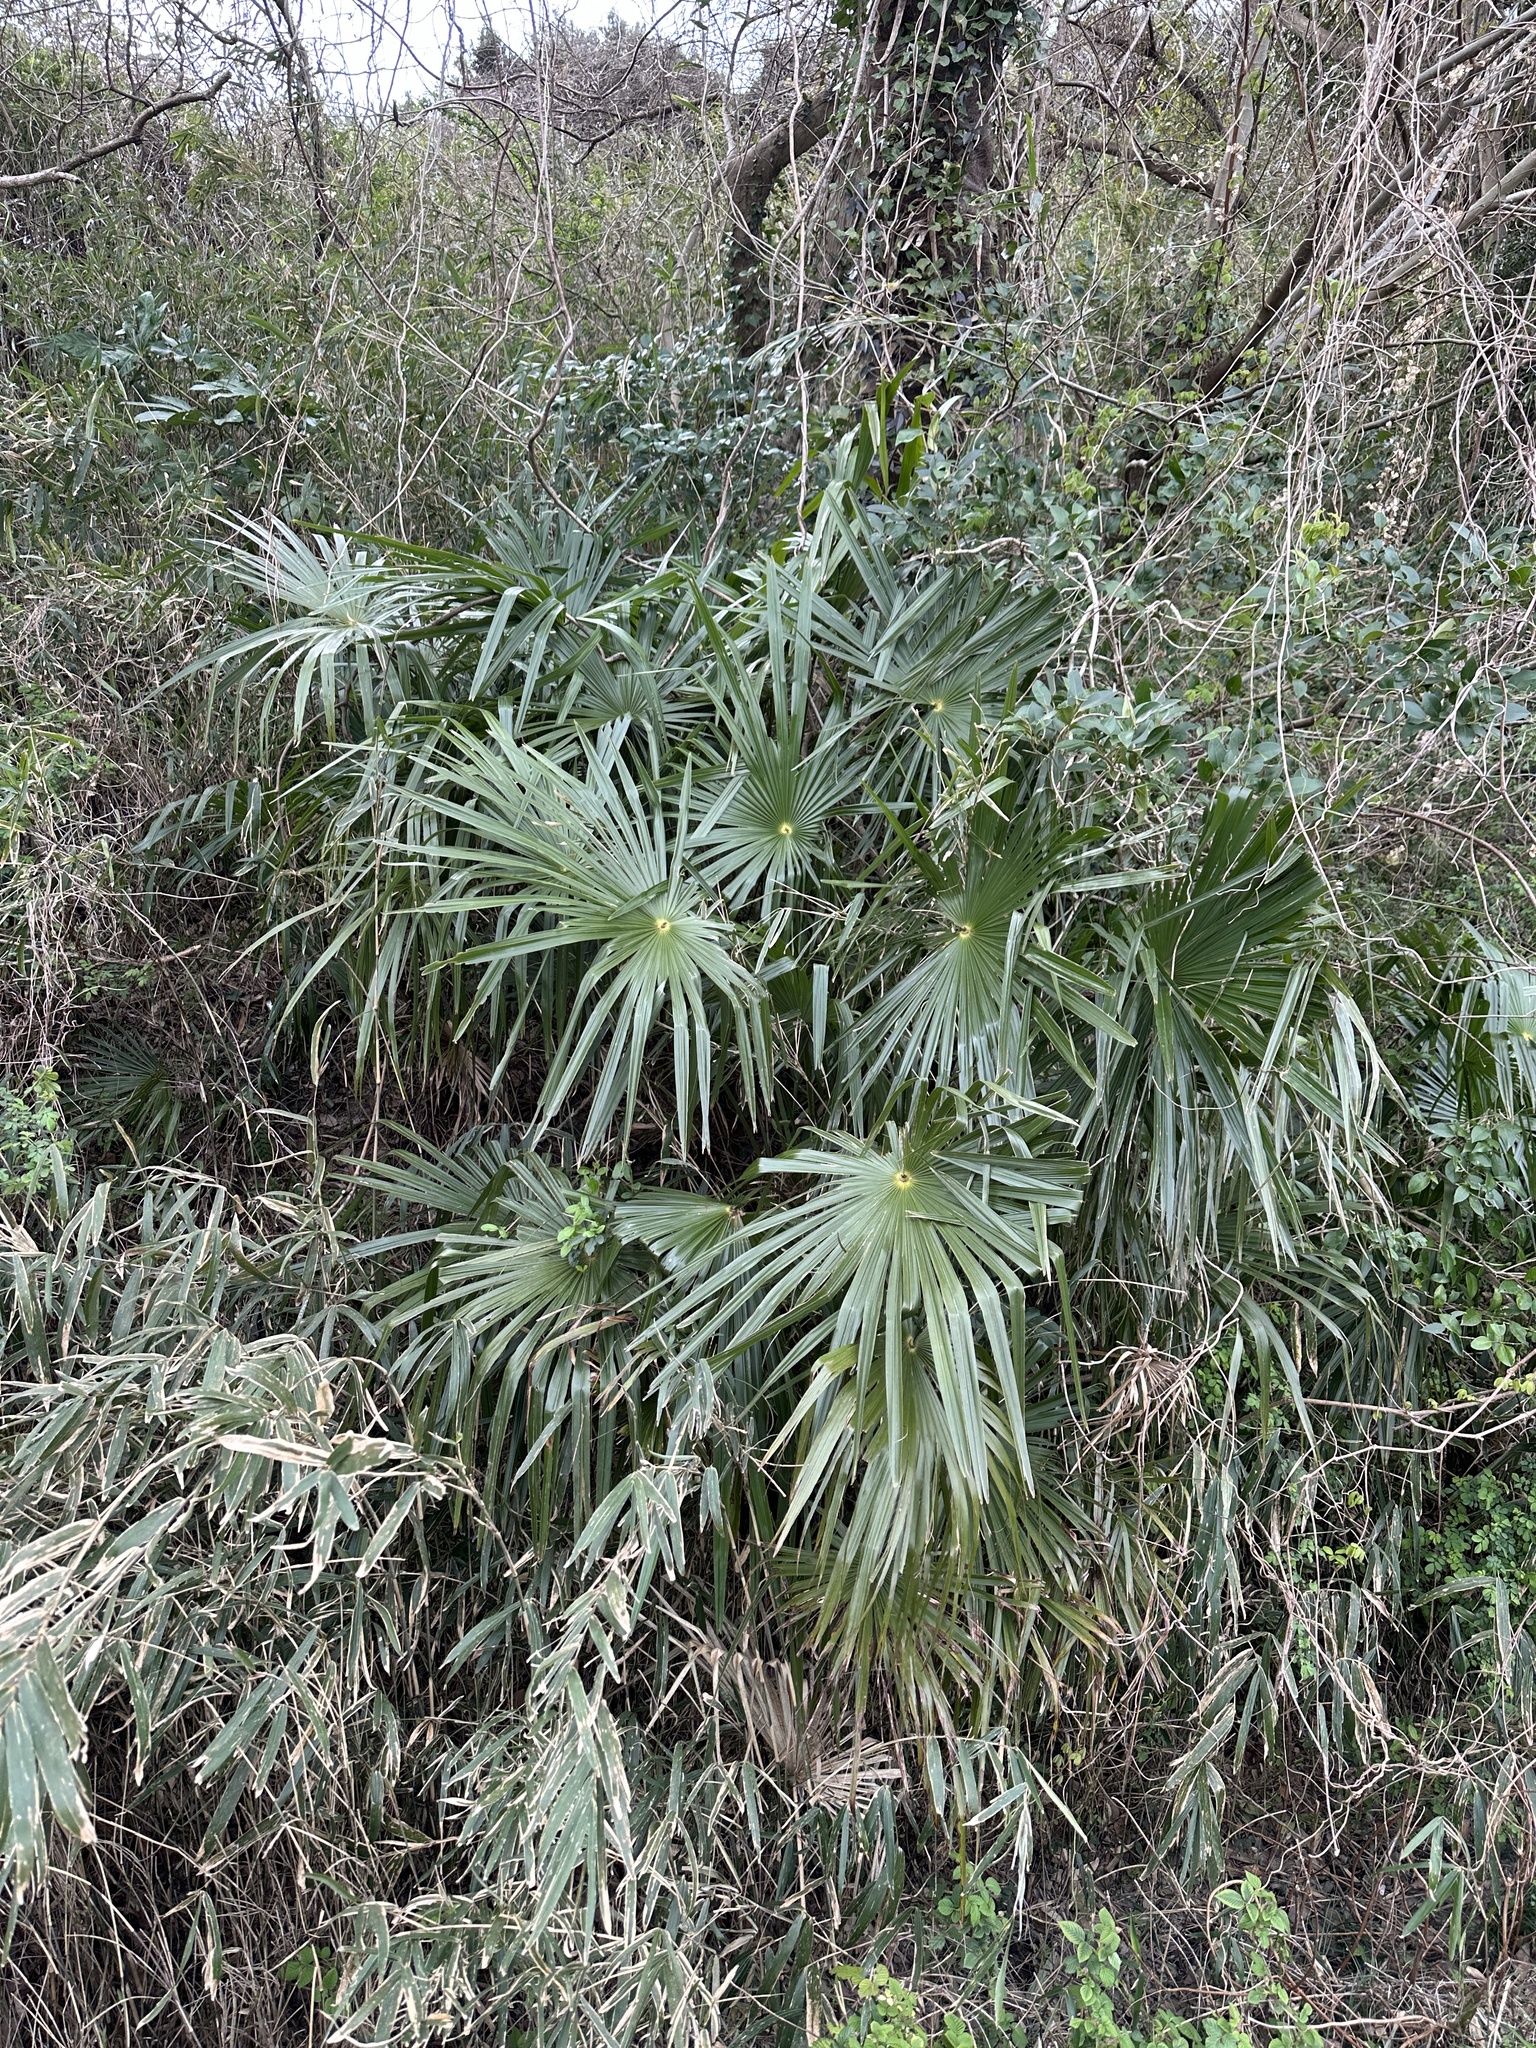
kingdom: Plantae
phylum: Tracheophyta
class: Liliopsida
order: Arecales
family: Arecaceae
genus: Trachycarpus
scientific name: Trachycarpus fortunei
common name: Chusan palm
